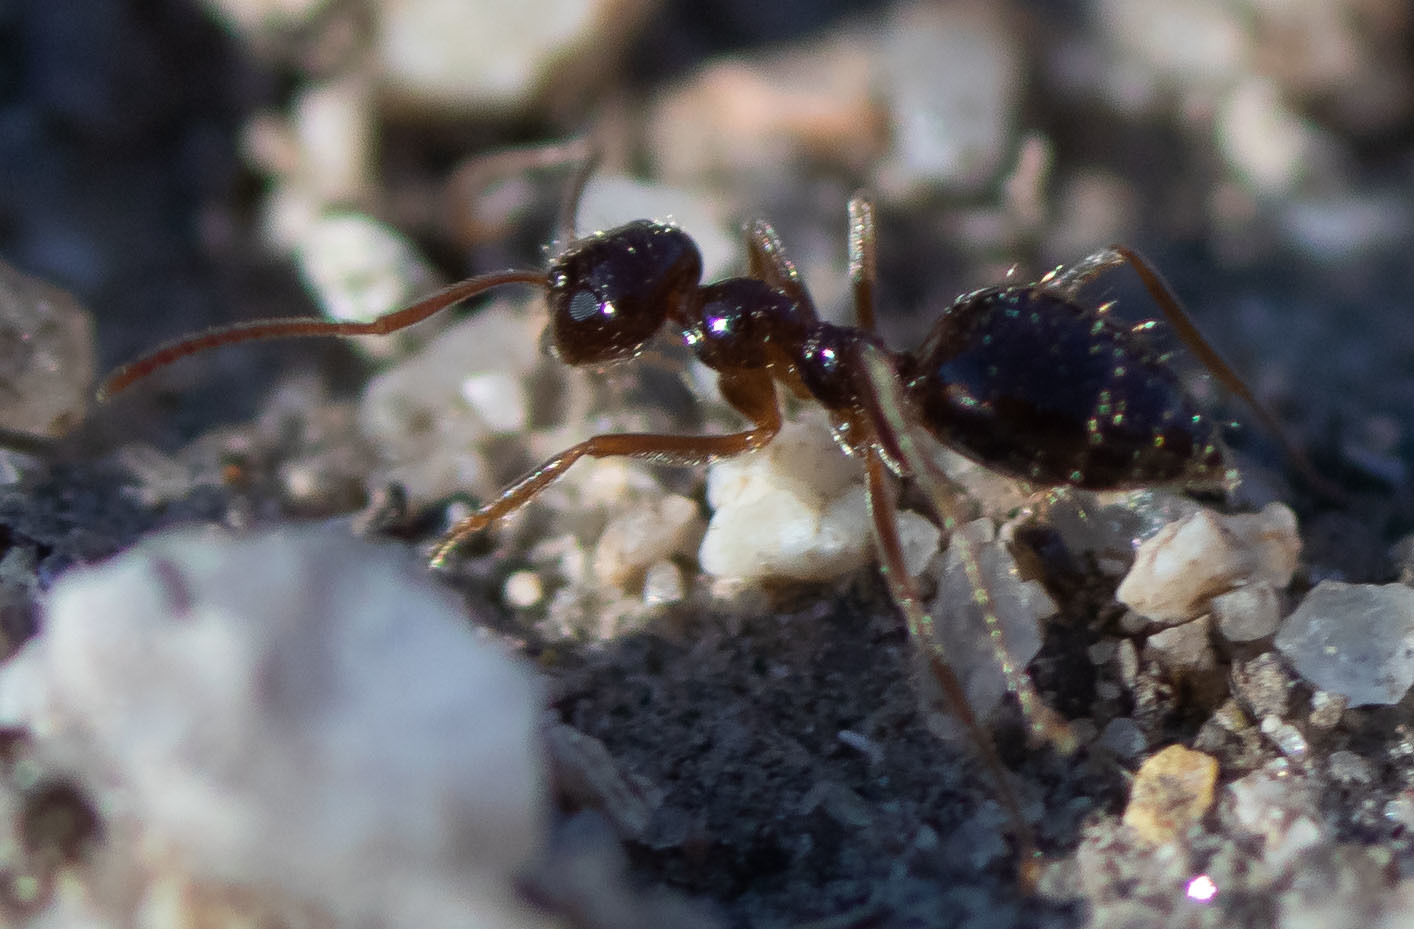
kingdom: Animalia
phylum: Arthropoda
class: Insecta
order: Hymenoptera
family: Formicidae
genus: Prenolepis
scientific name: Prenolepis imparis
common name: Small honey ant
